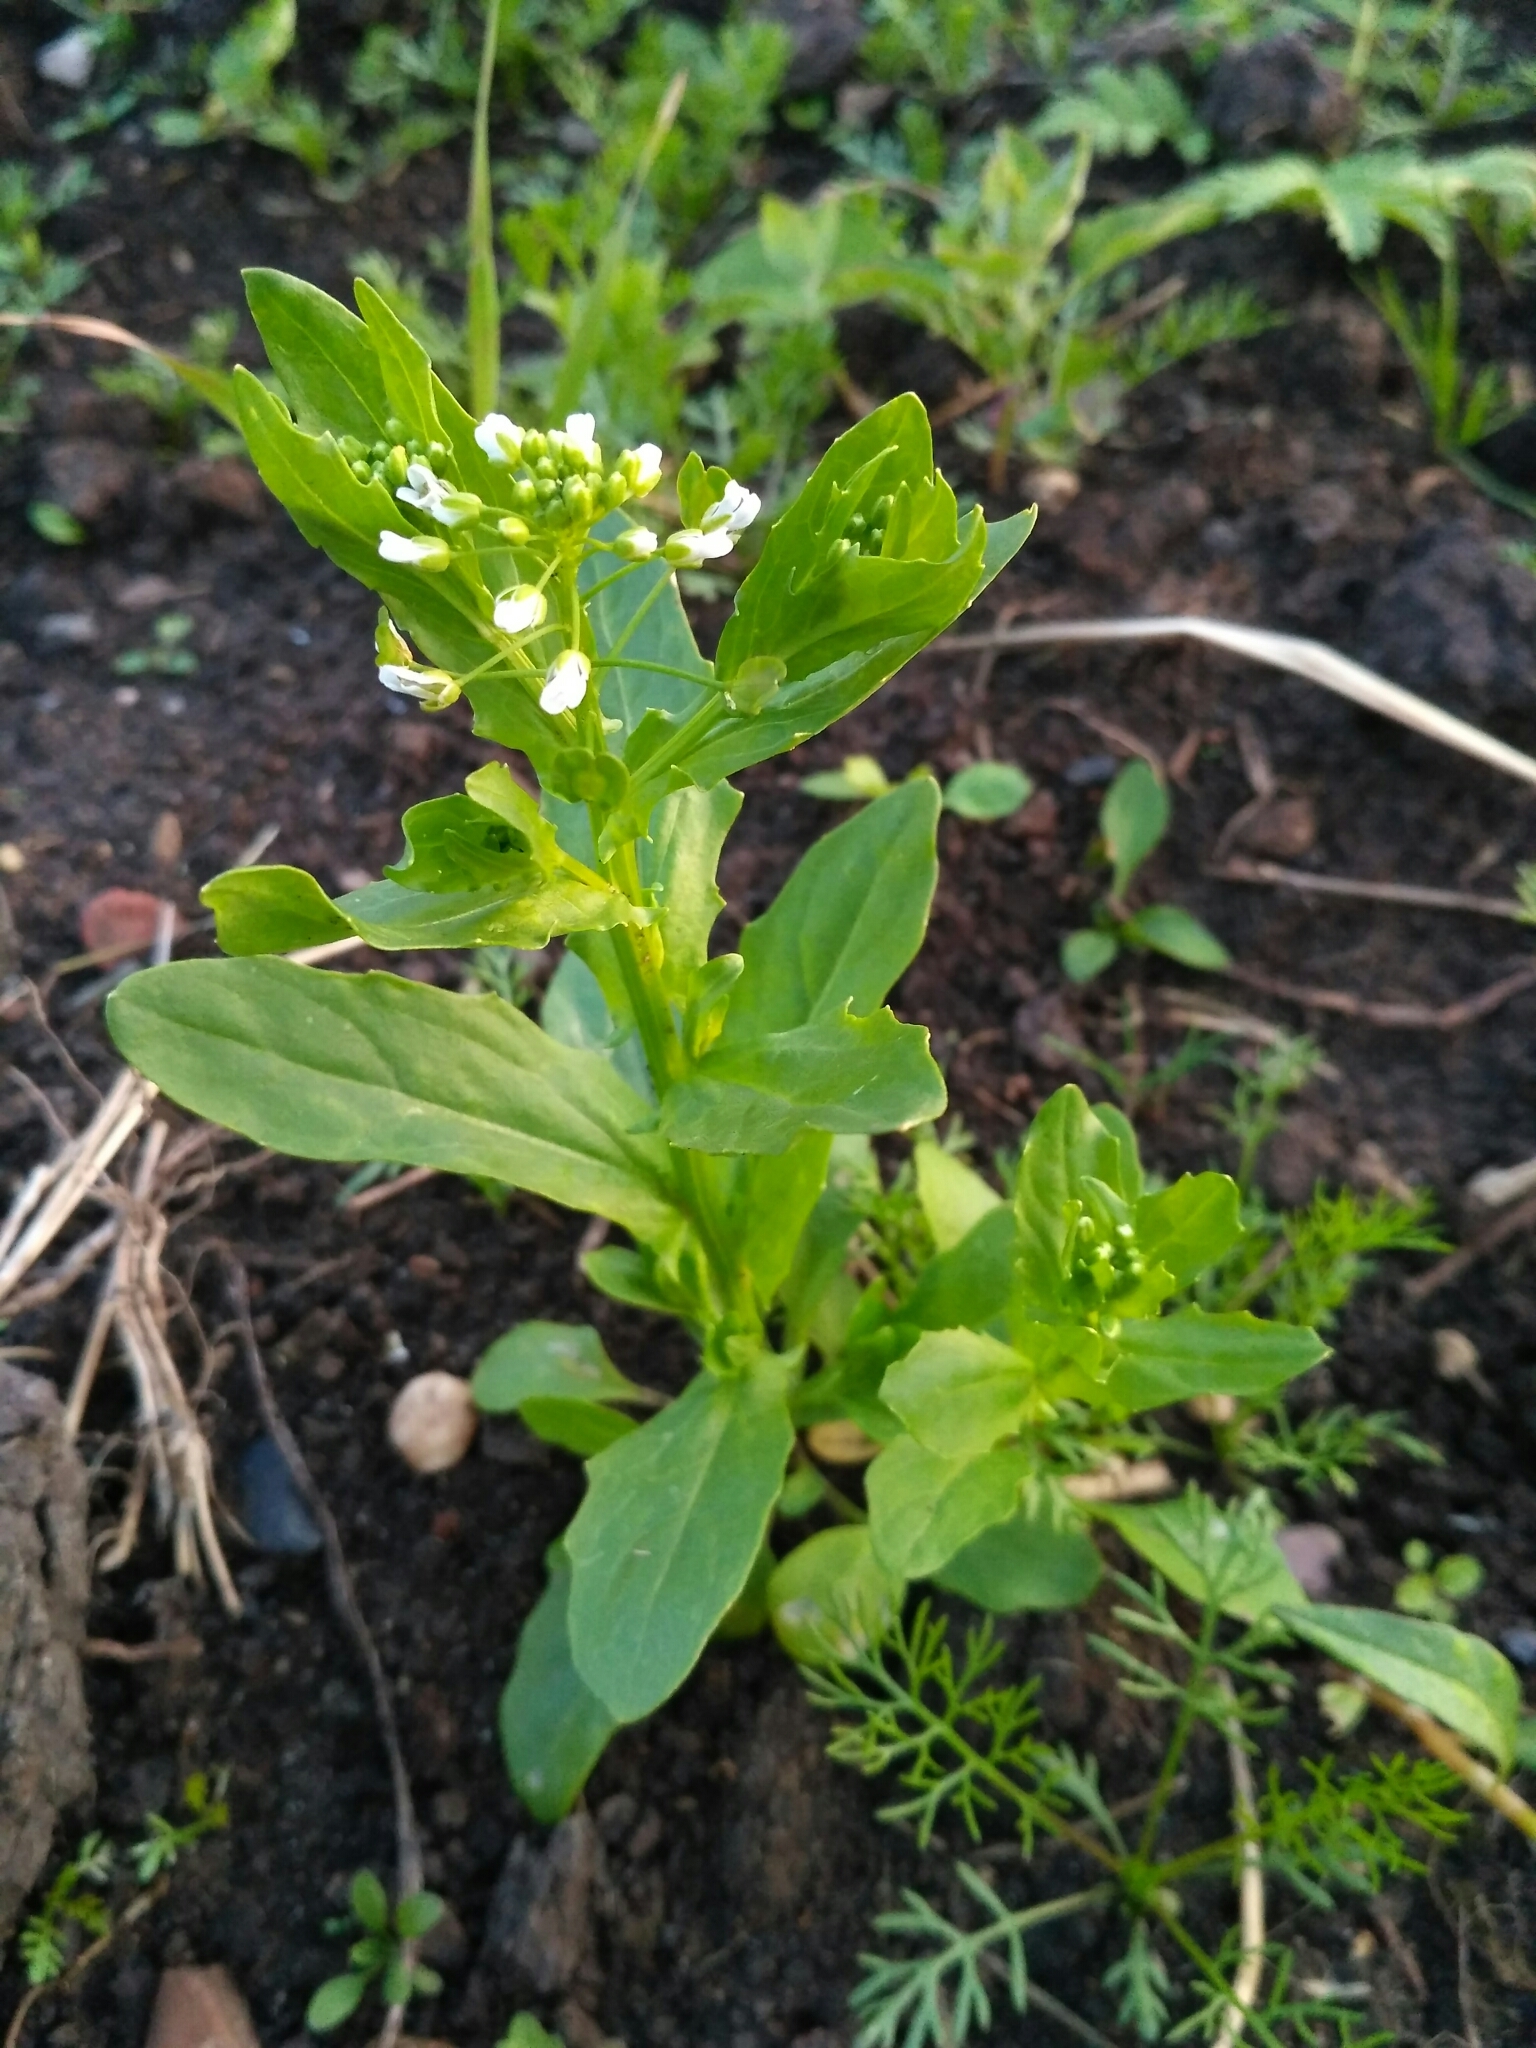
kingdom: Plantae
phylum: Tracheophyta
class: Magnoliopsida
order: Brassicales
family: Brassicaceae
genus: Thlaspi
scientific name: Thlaspi arvense
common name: Field pennycress
